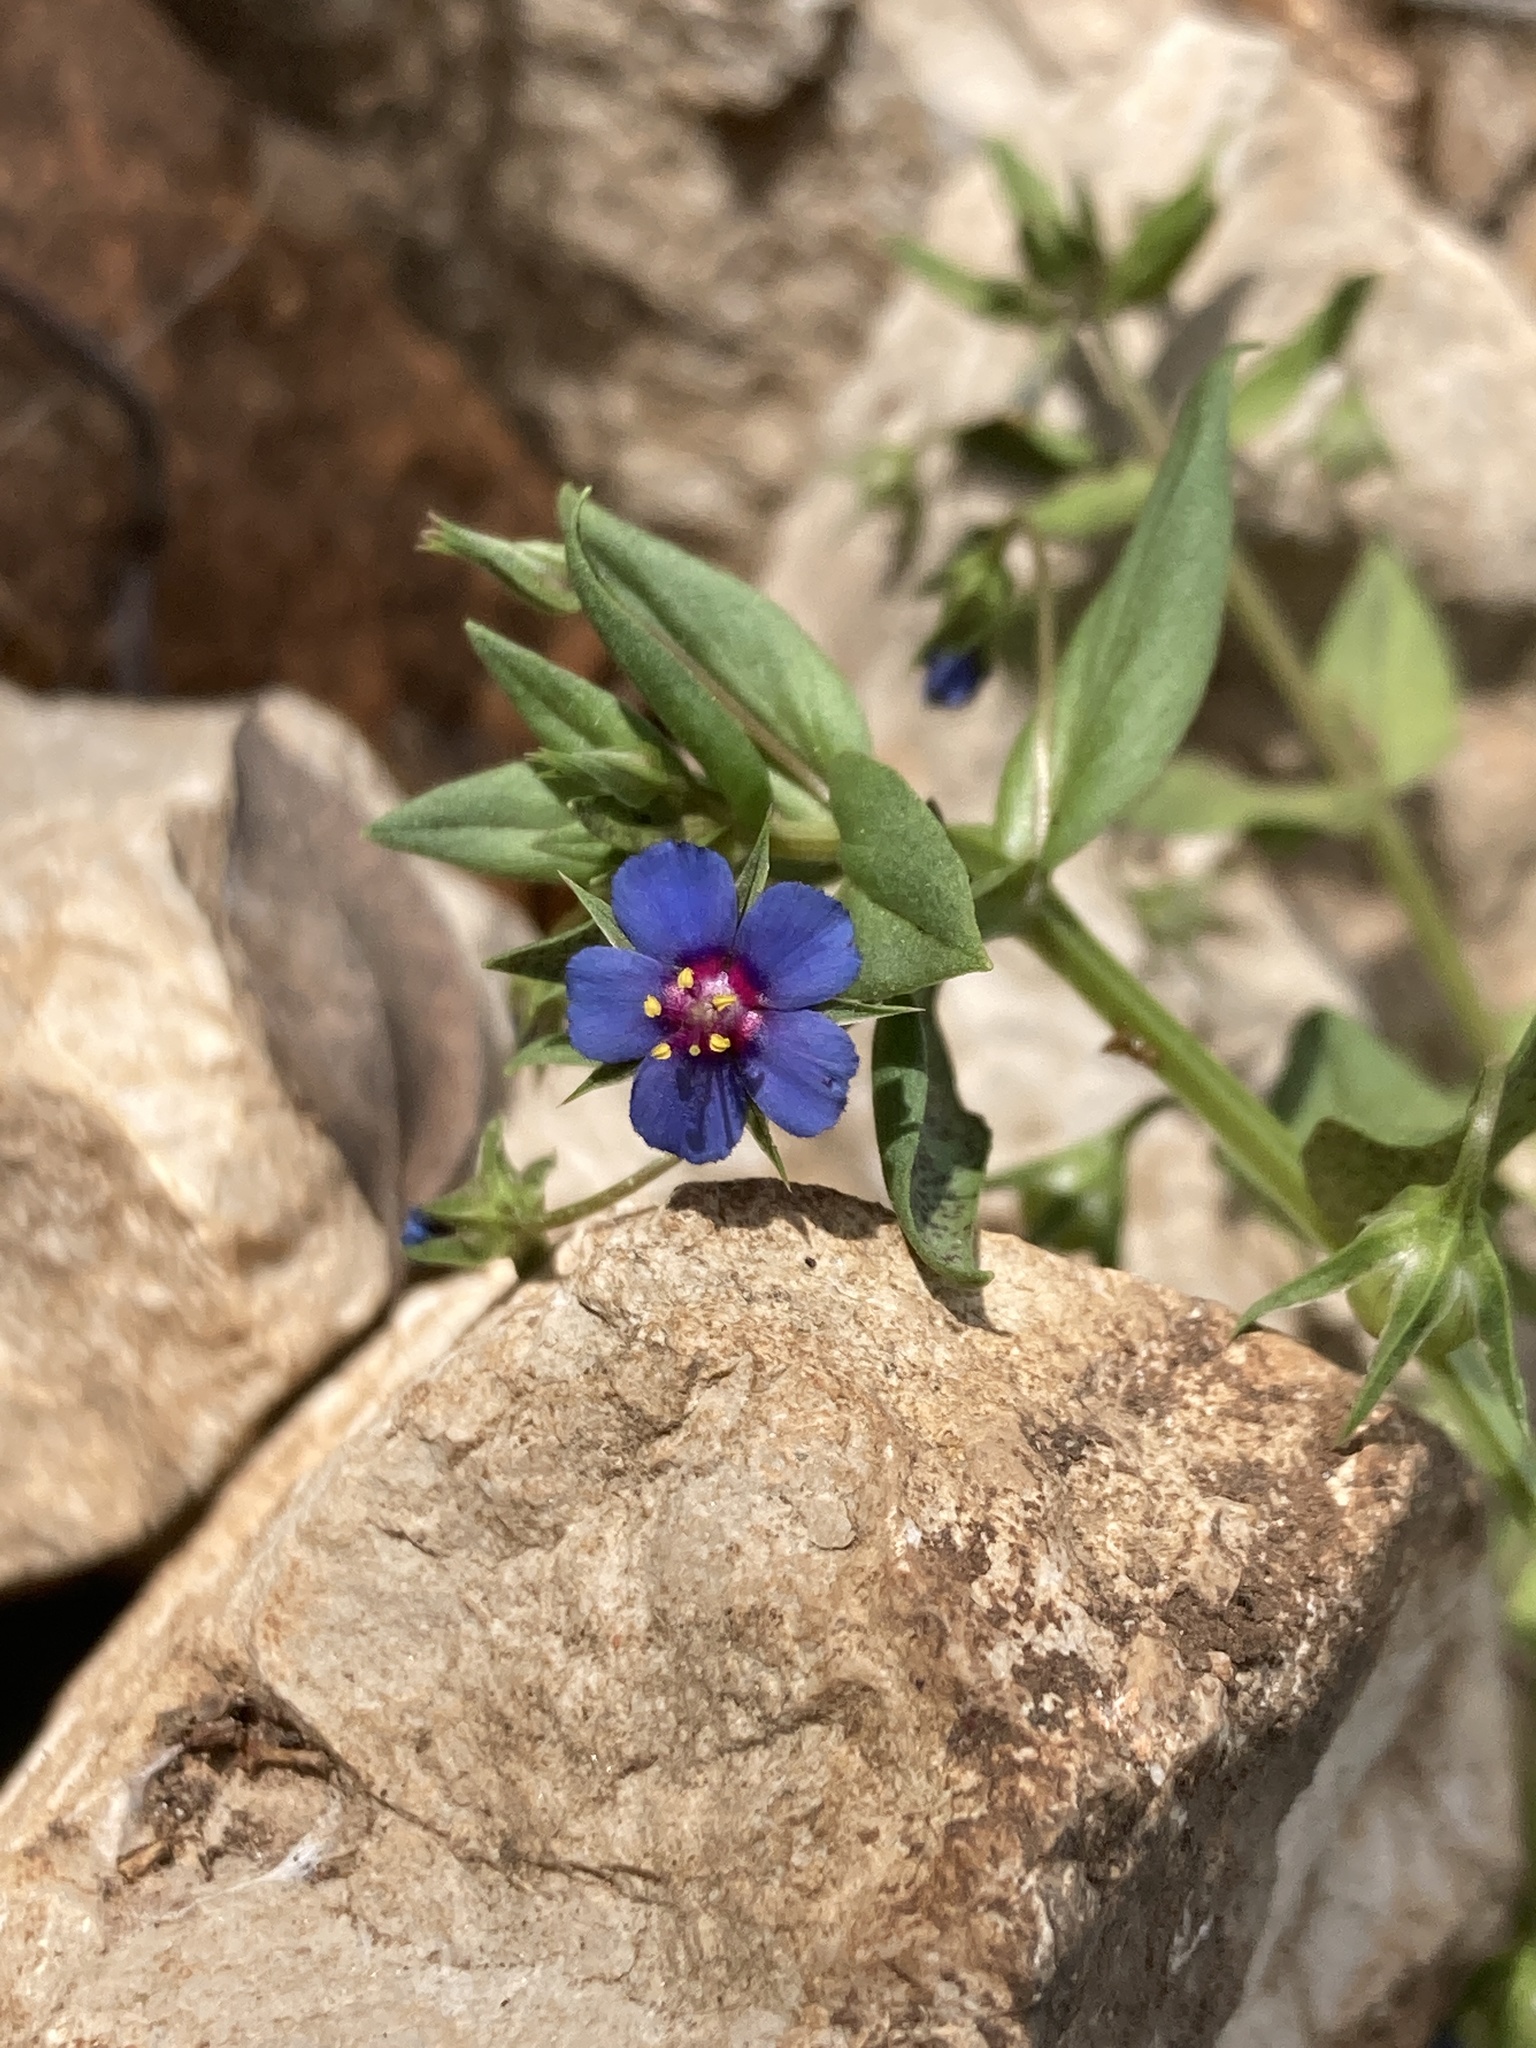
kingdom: Plantae
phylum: Tracheophyta
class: Magnoliopsida
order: Ericales
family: Primulaceae
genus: Lysimachia
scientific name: Lysimachia foemina
